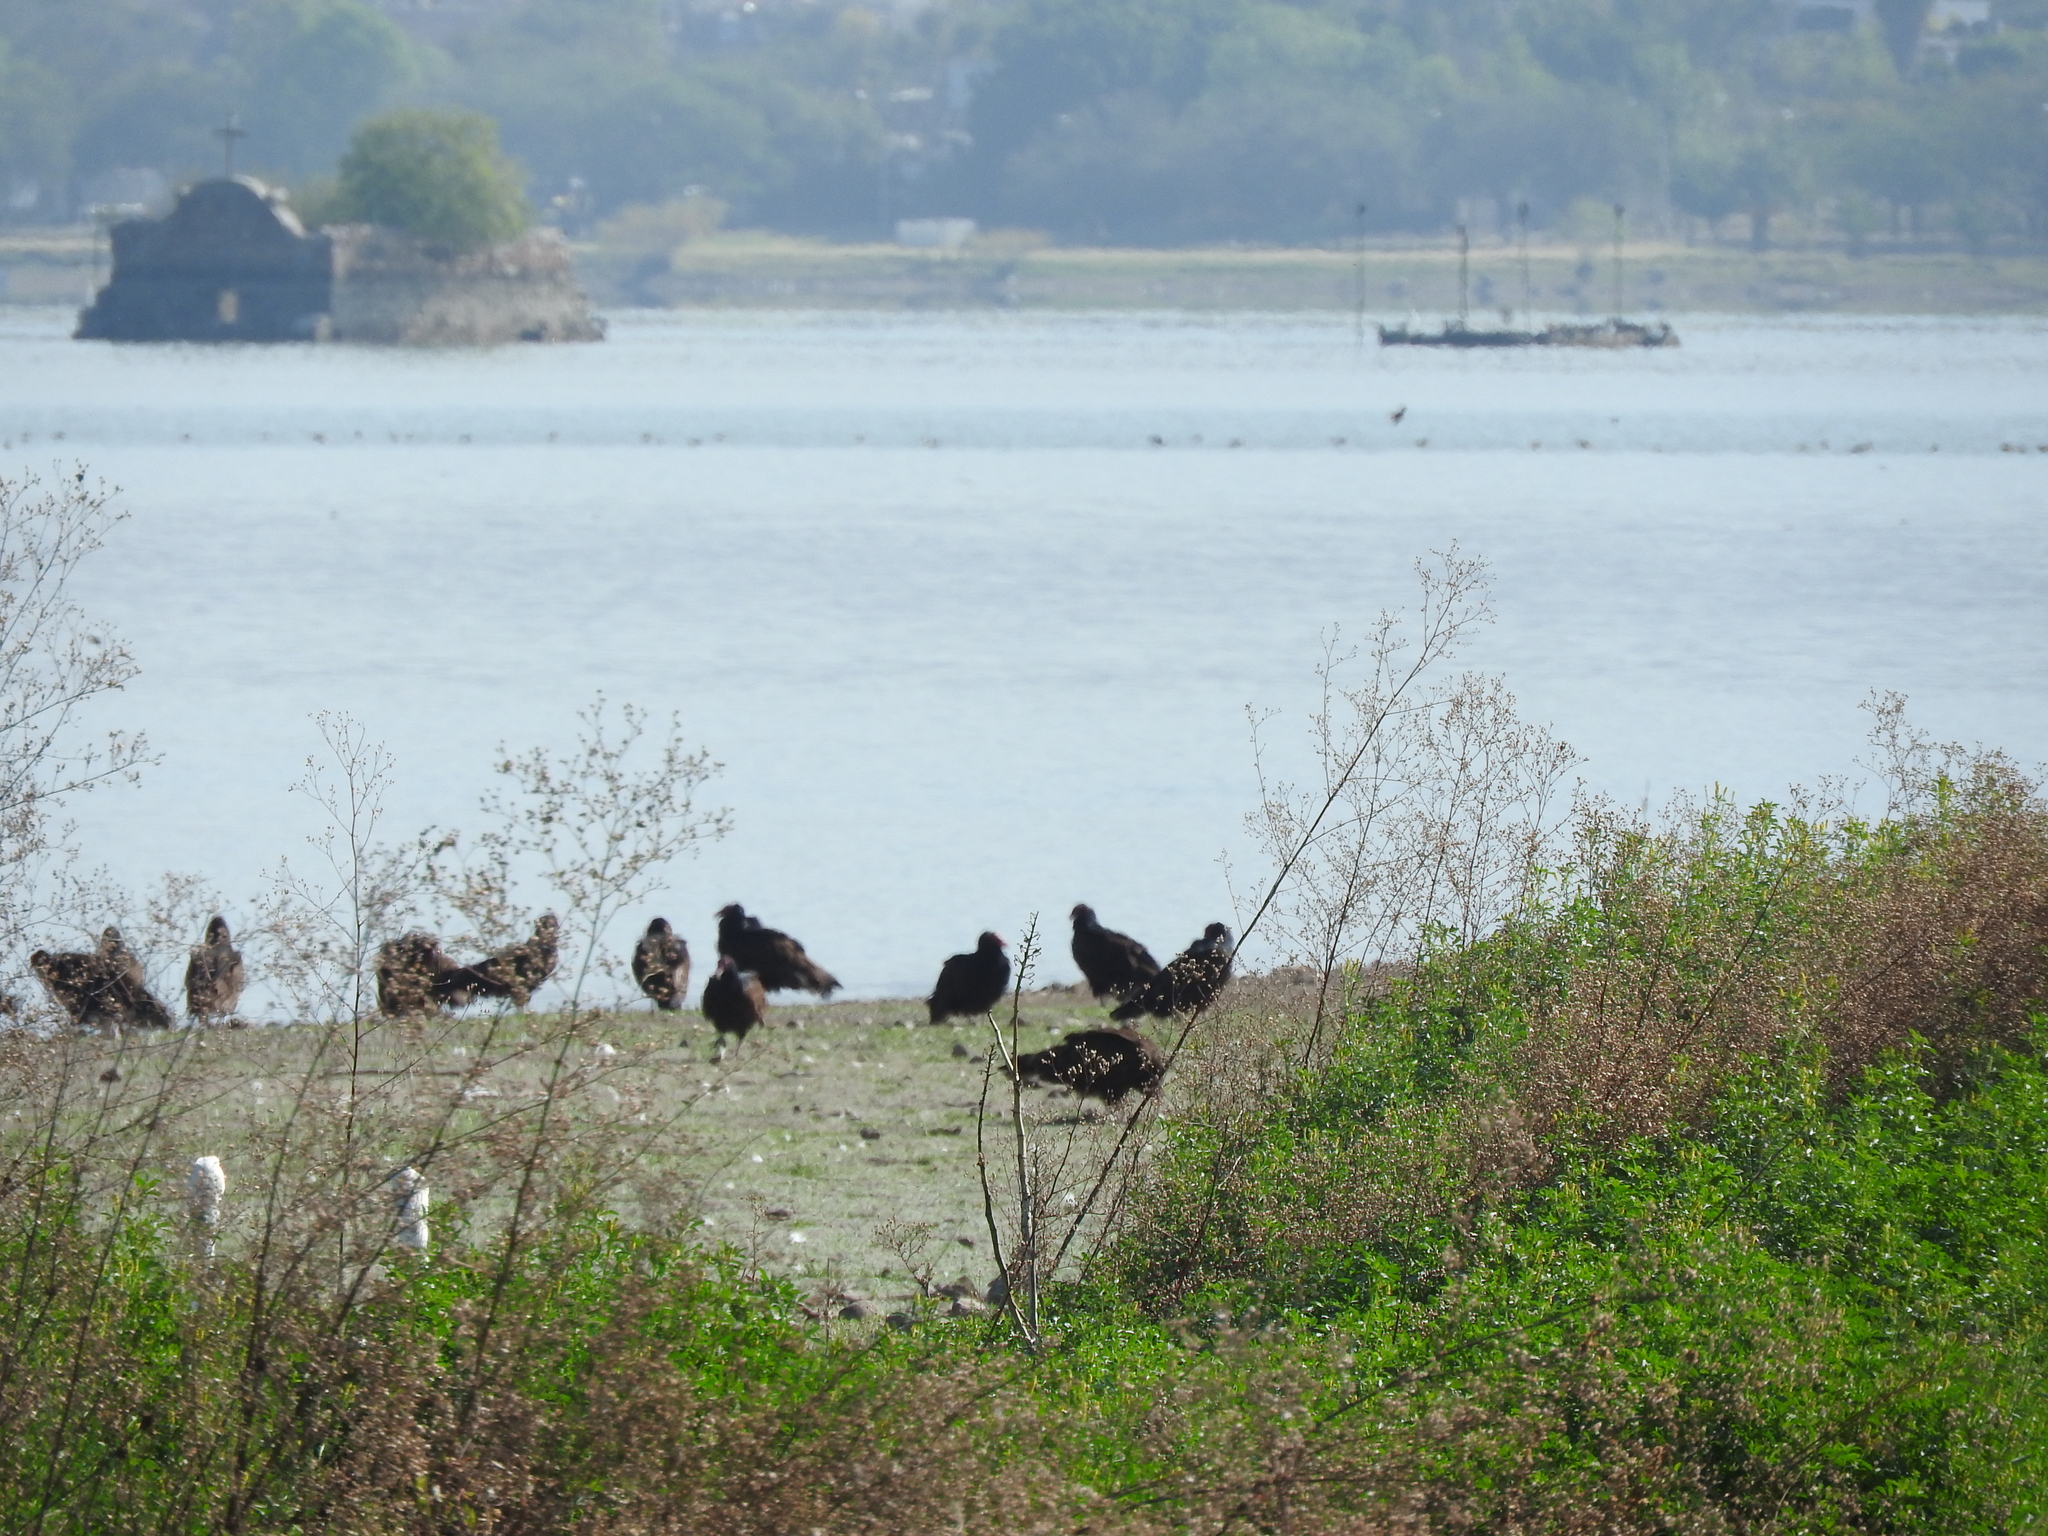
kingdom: Animalia
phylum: Chordata
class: Aves
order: Accipitriformes
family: Cathartidae
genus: Cathartes
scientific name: Cathartes aura
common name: Turkey vulture
